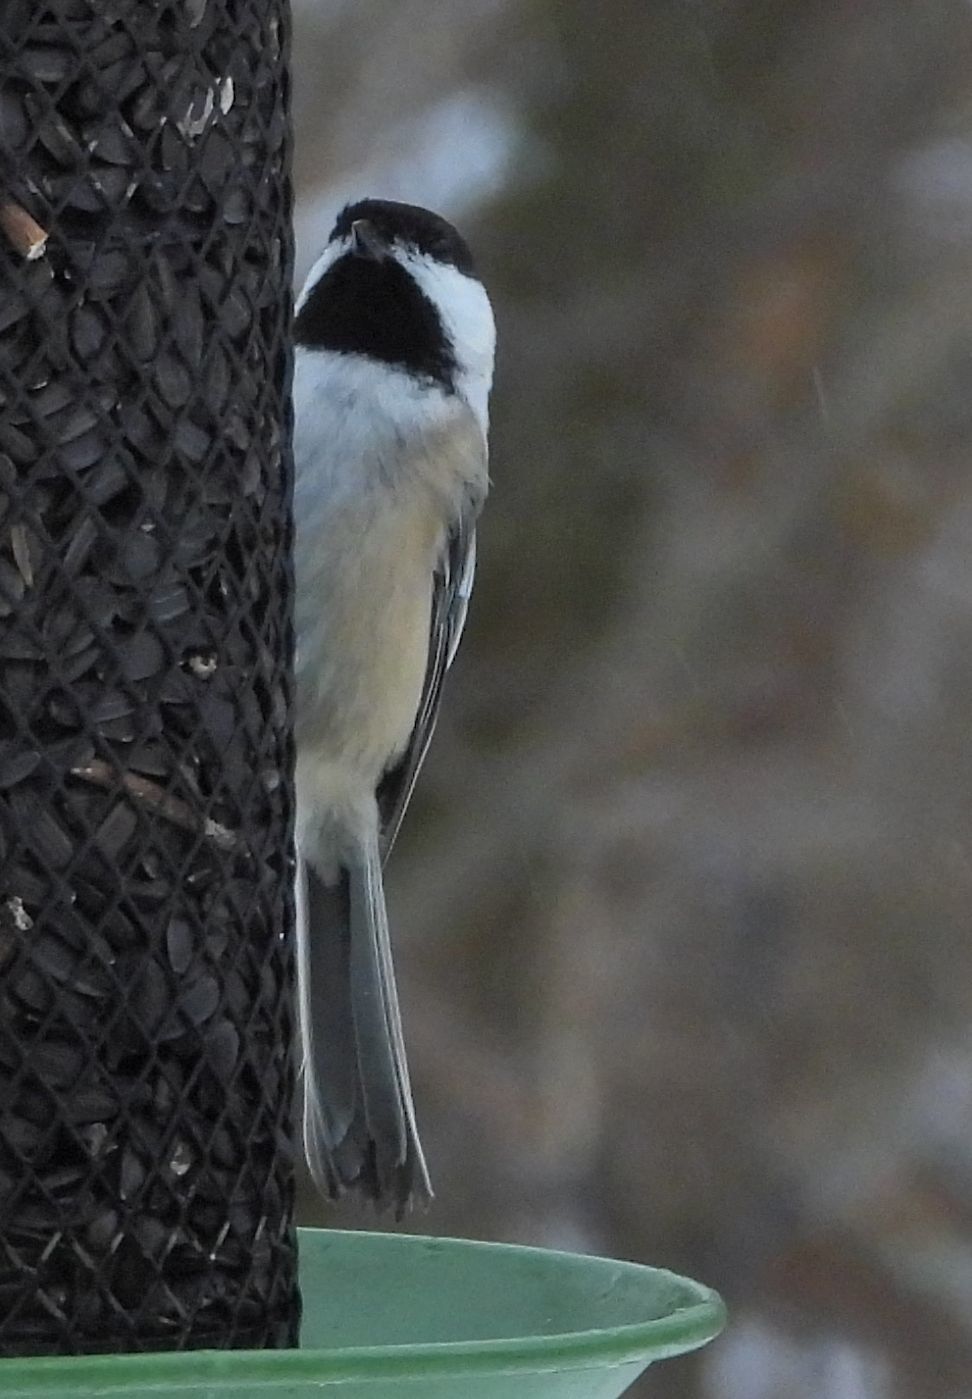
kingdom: Animalia
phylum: Chordata
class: Aves
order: Passeriformes
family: Paridae
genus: Poecile
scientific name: Poecile atricapillus
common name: Black-capped chickadee
